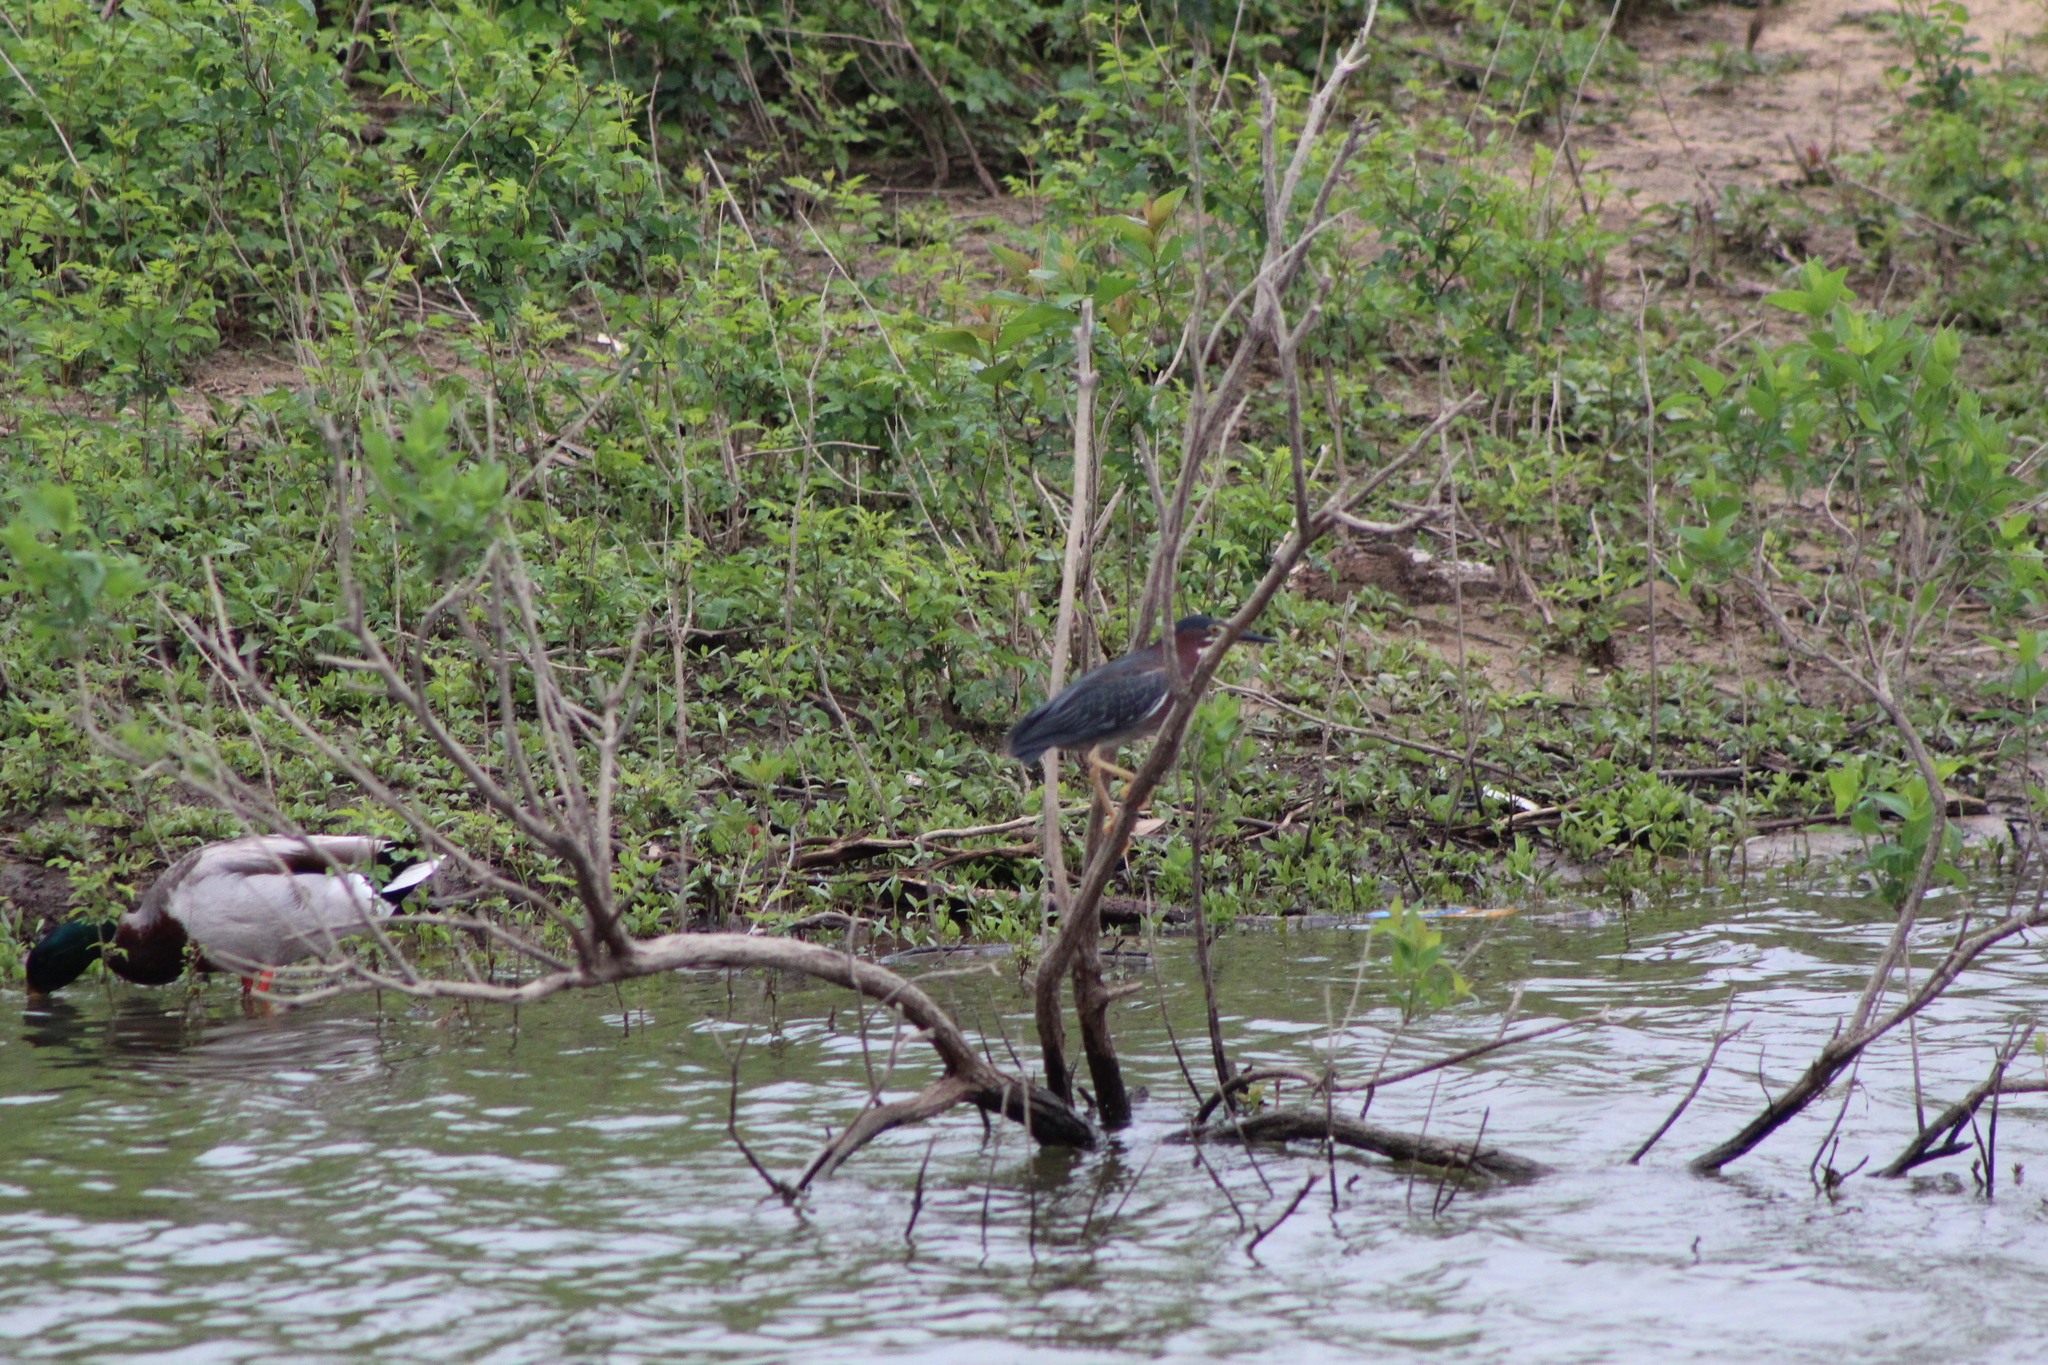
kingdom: Animalia
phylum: Chordata
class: Aves
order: Pelecaniformes
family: Ardeidae
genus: Butorides
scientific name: Butorides virescens
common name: Green heron
